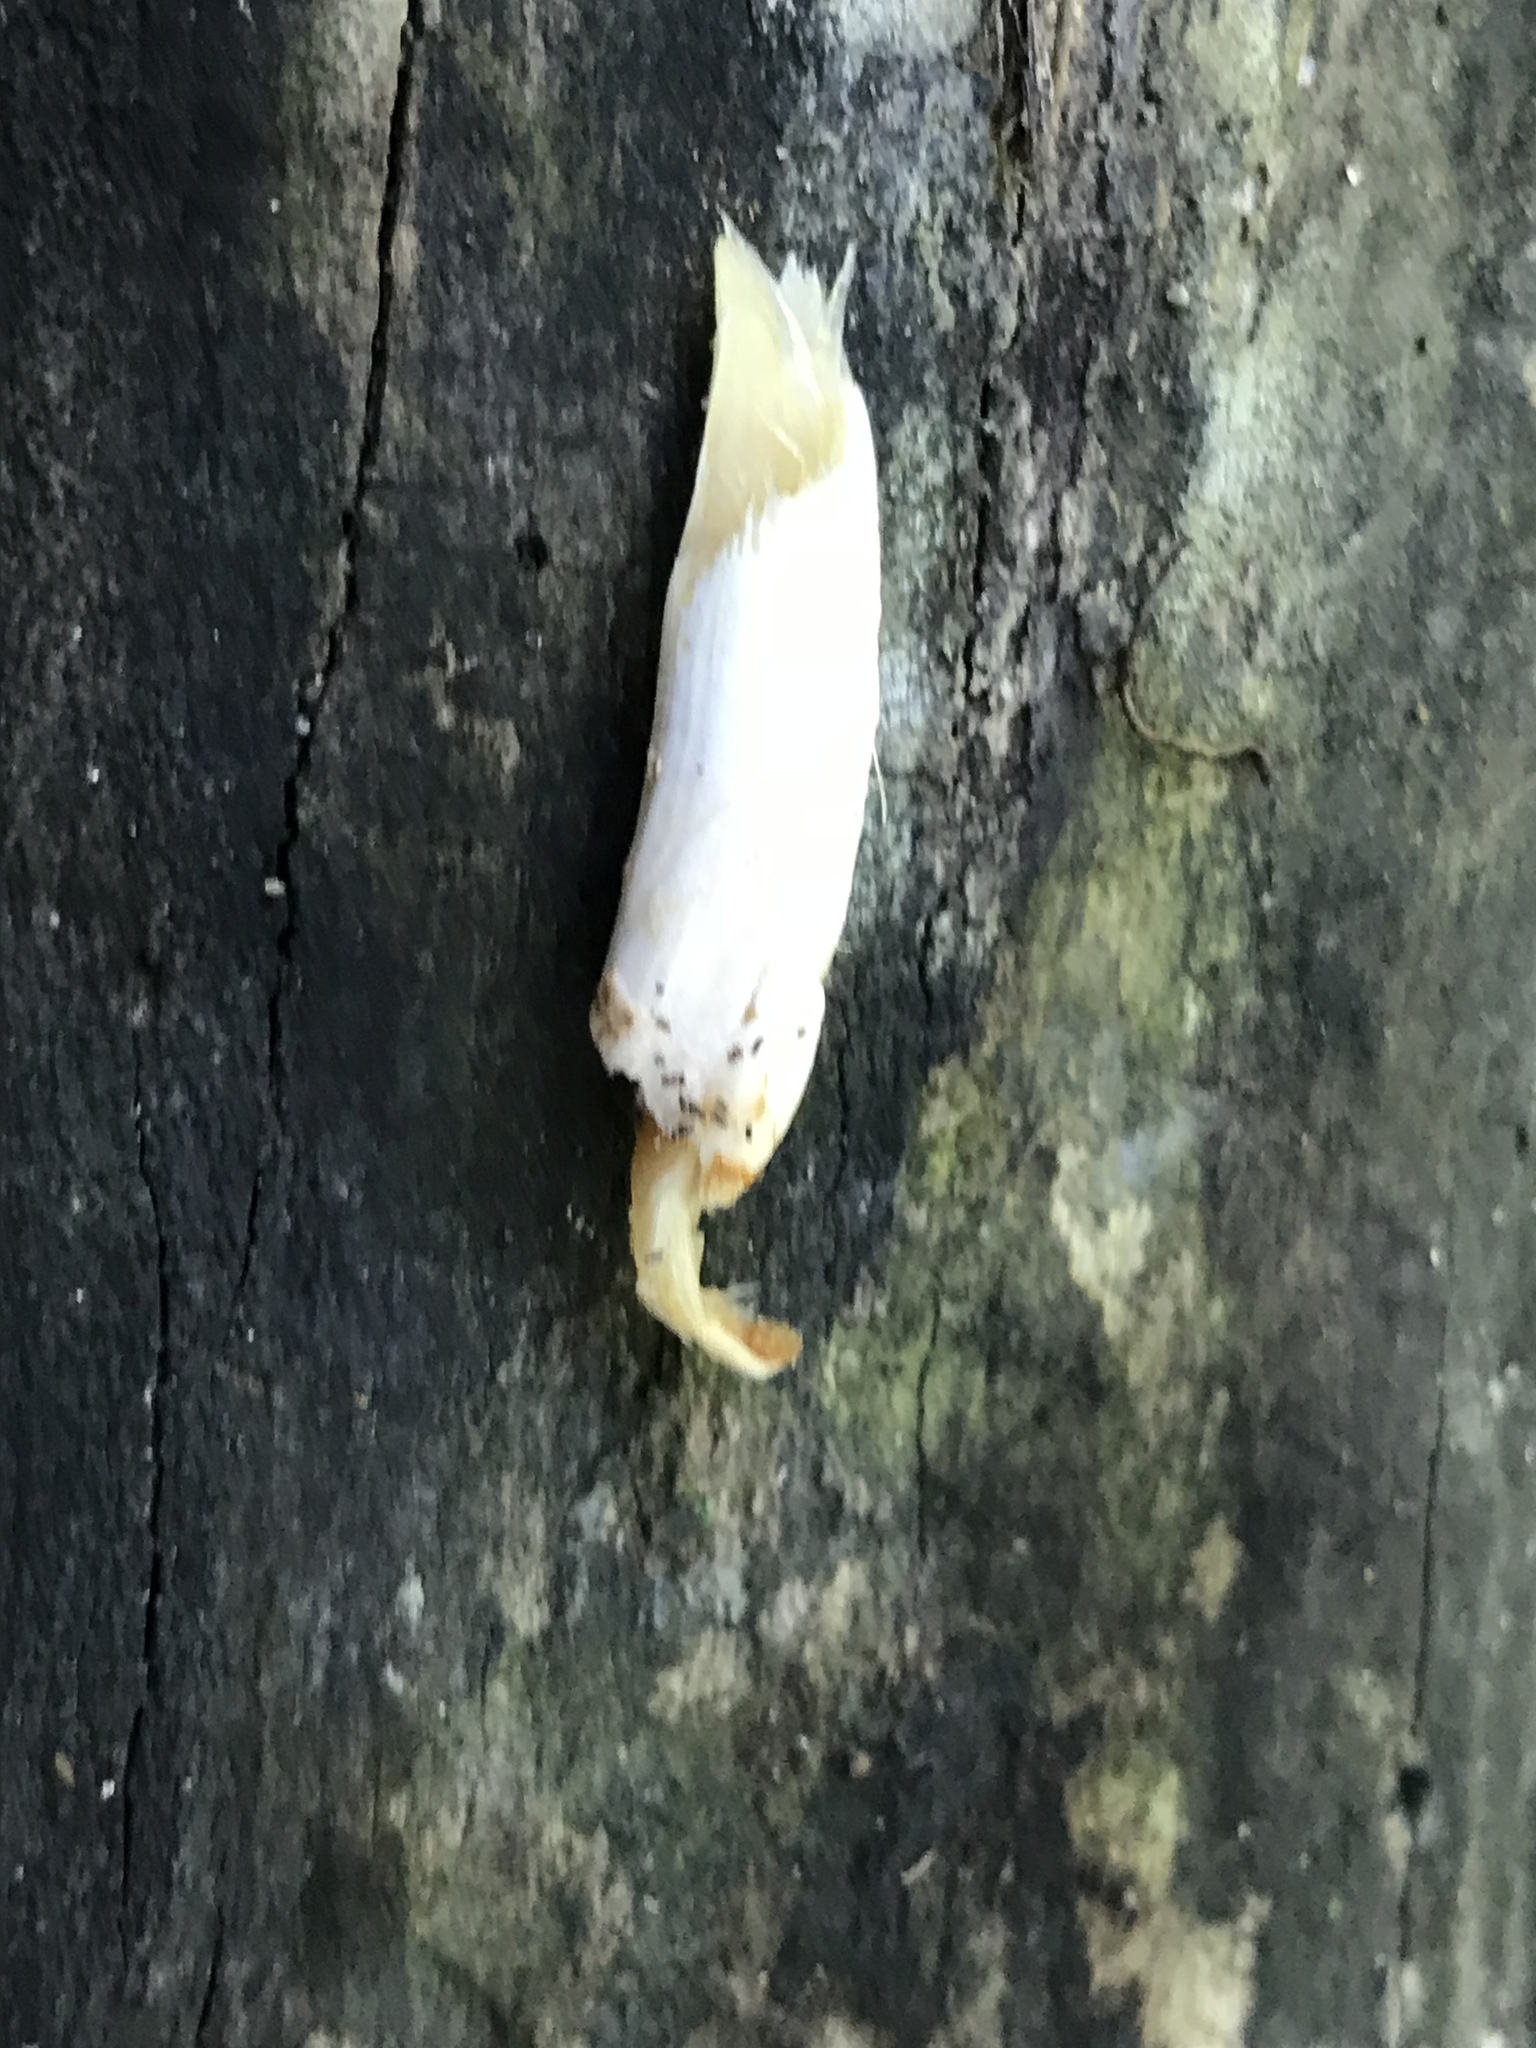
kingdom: Fungi
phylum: Basidiomycota
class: Agaricomycetes
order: Agaricales
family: Agaricaceae
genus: Coprinus
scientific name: Coprinus comatus
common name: Lawyer's wig
